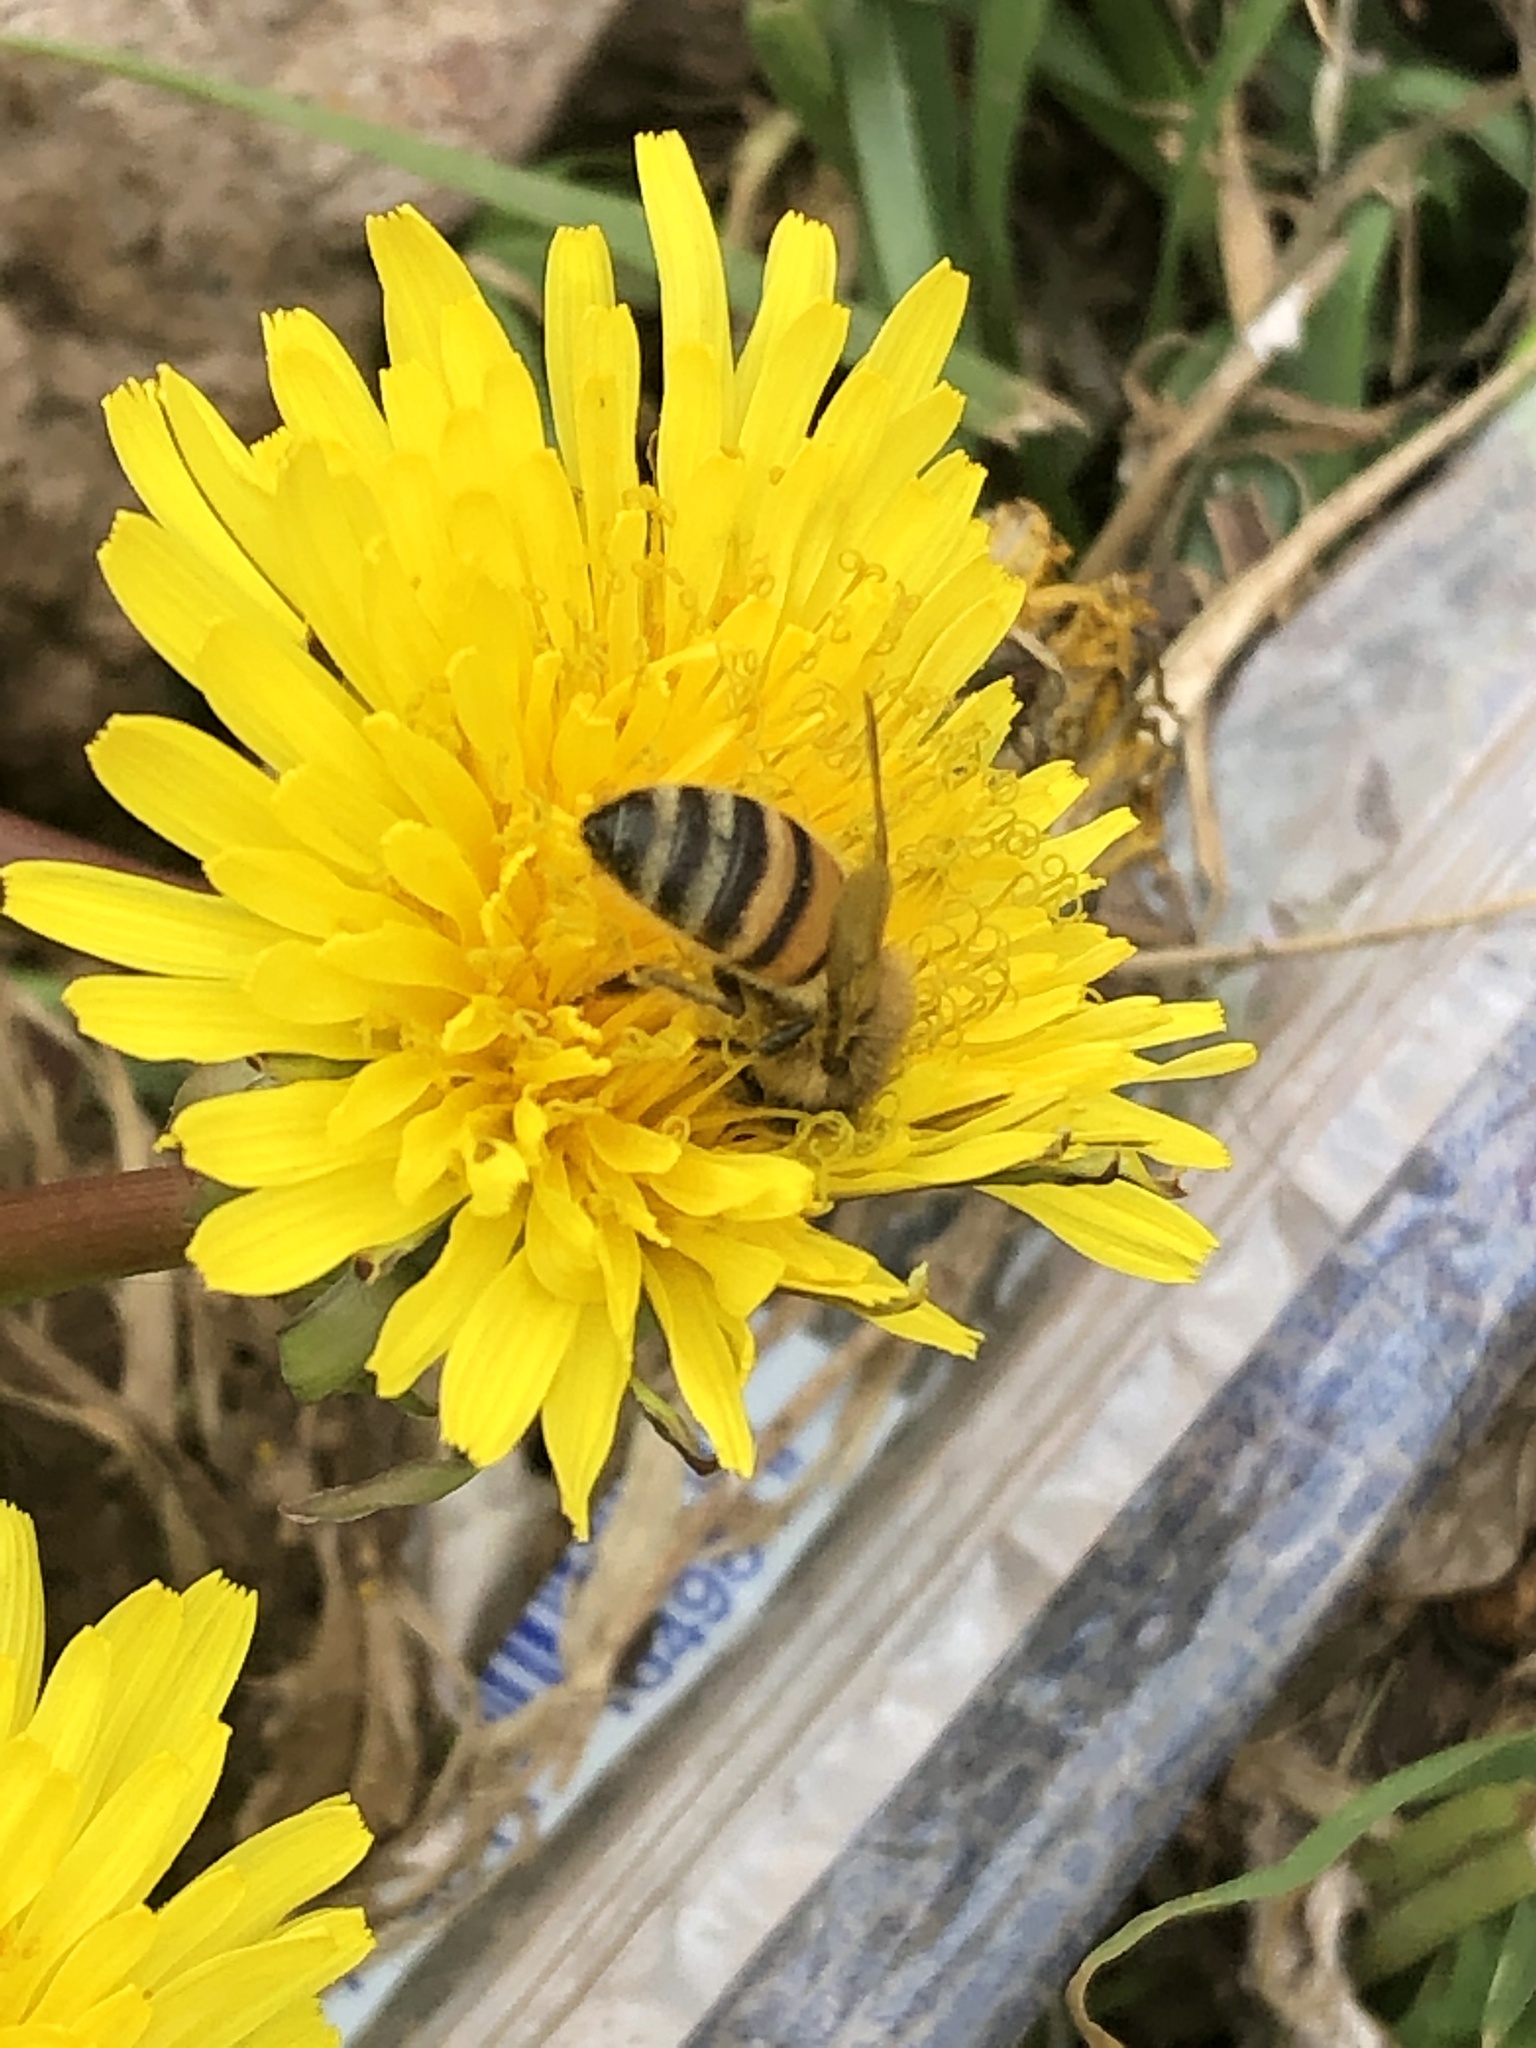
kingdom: Animalia
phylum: Arthropoda
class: Insecta
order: Hymenoptera
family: Apidae
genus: Apis
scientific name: Apis mellifera
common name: Honey bee
